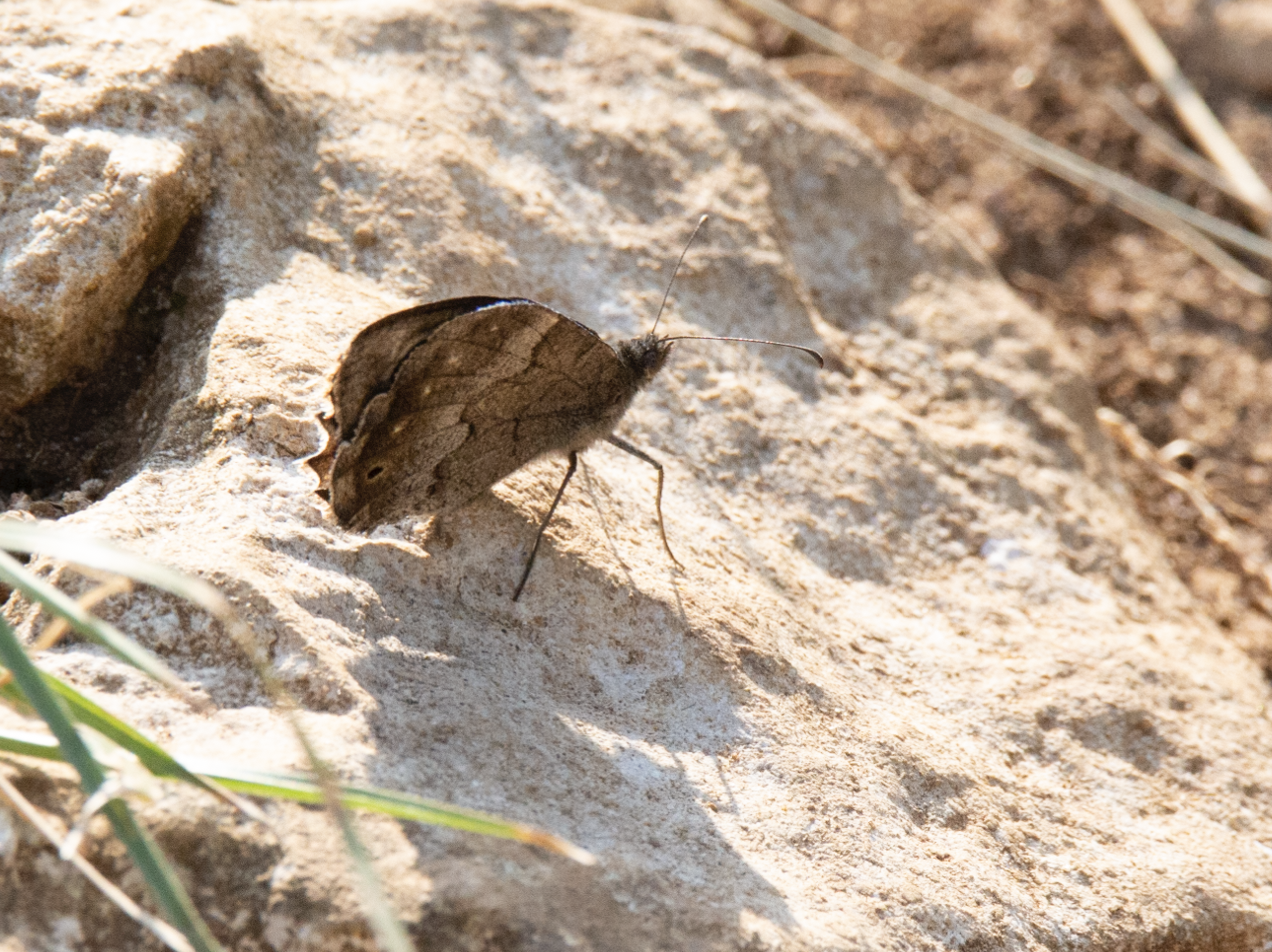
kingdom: Animalia
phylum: Arthropoda
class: Insecta
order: Lepidoptera
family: Nymphalidae
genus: Hipparchia
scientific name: Hipparchia statilinus
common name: Tree grayling
